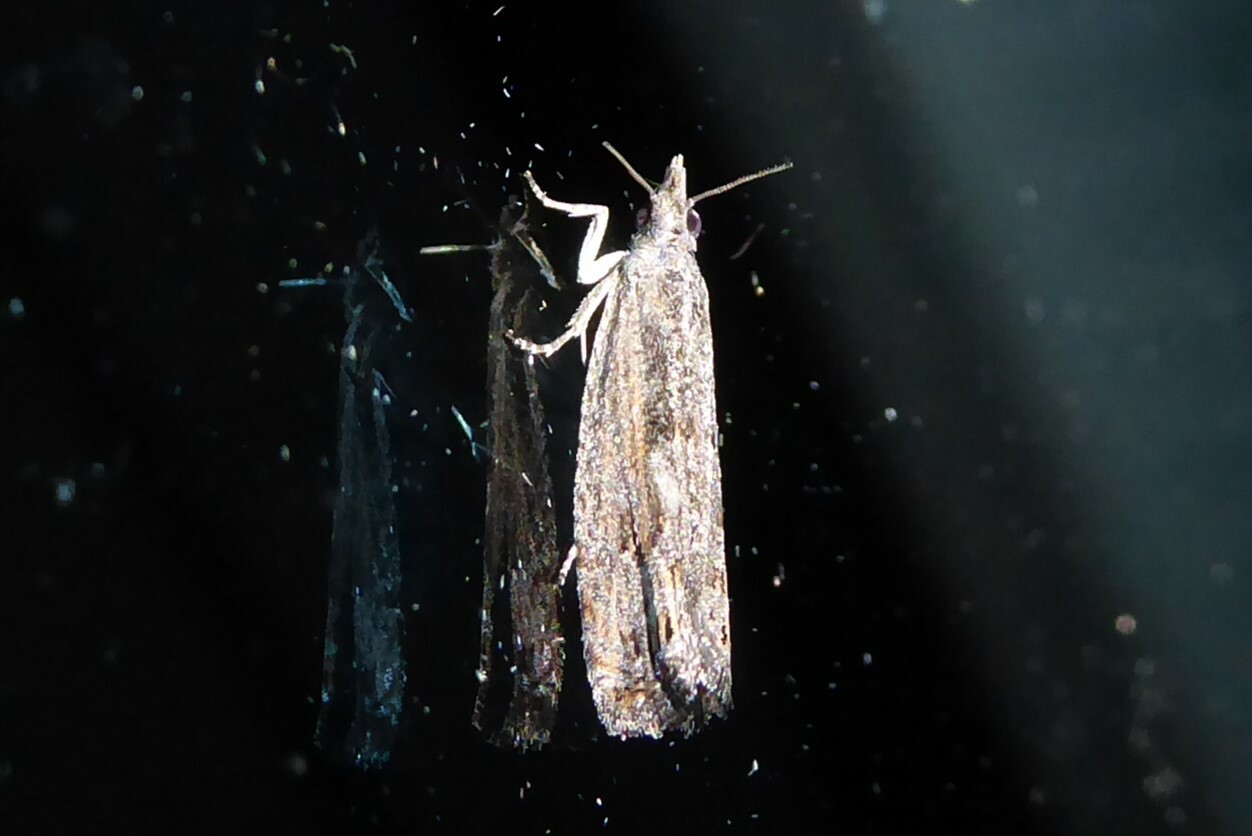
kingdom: Animalia
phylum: Arthropoda
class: Insecta
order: Lepidoptera
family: Tortricidae
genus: Strepsicrates
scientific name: Strepsicrates macropetana
